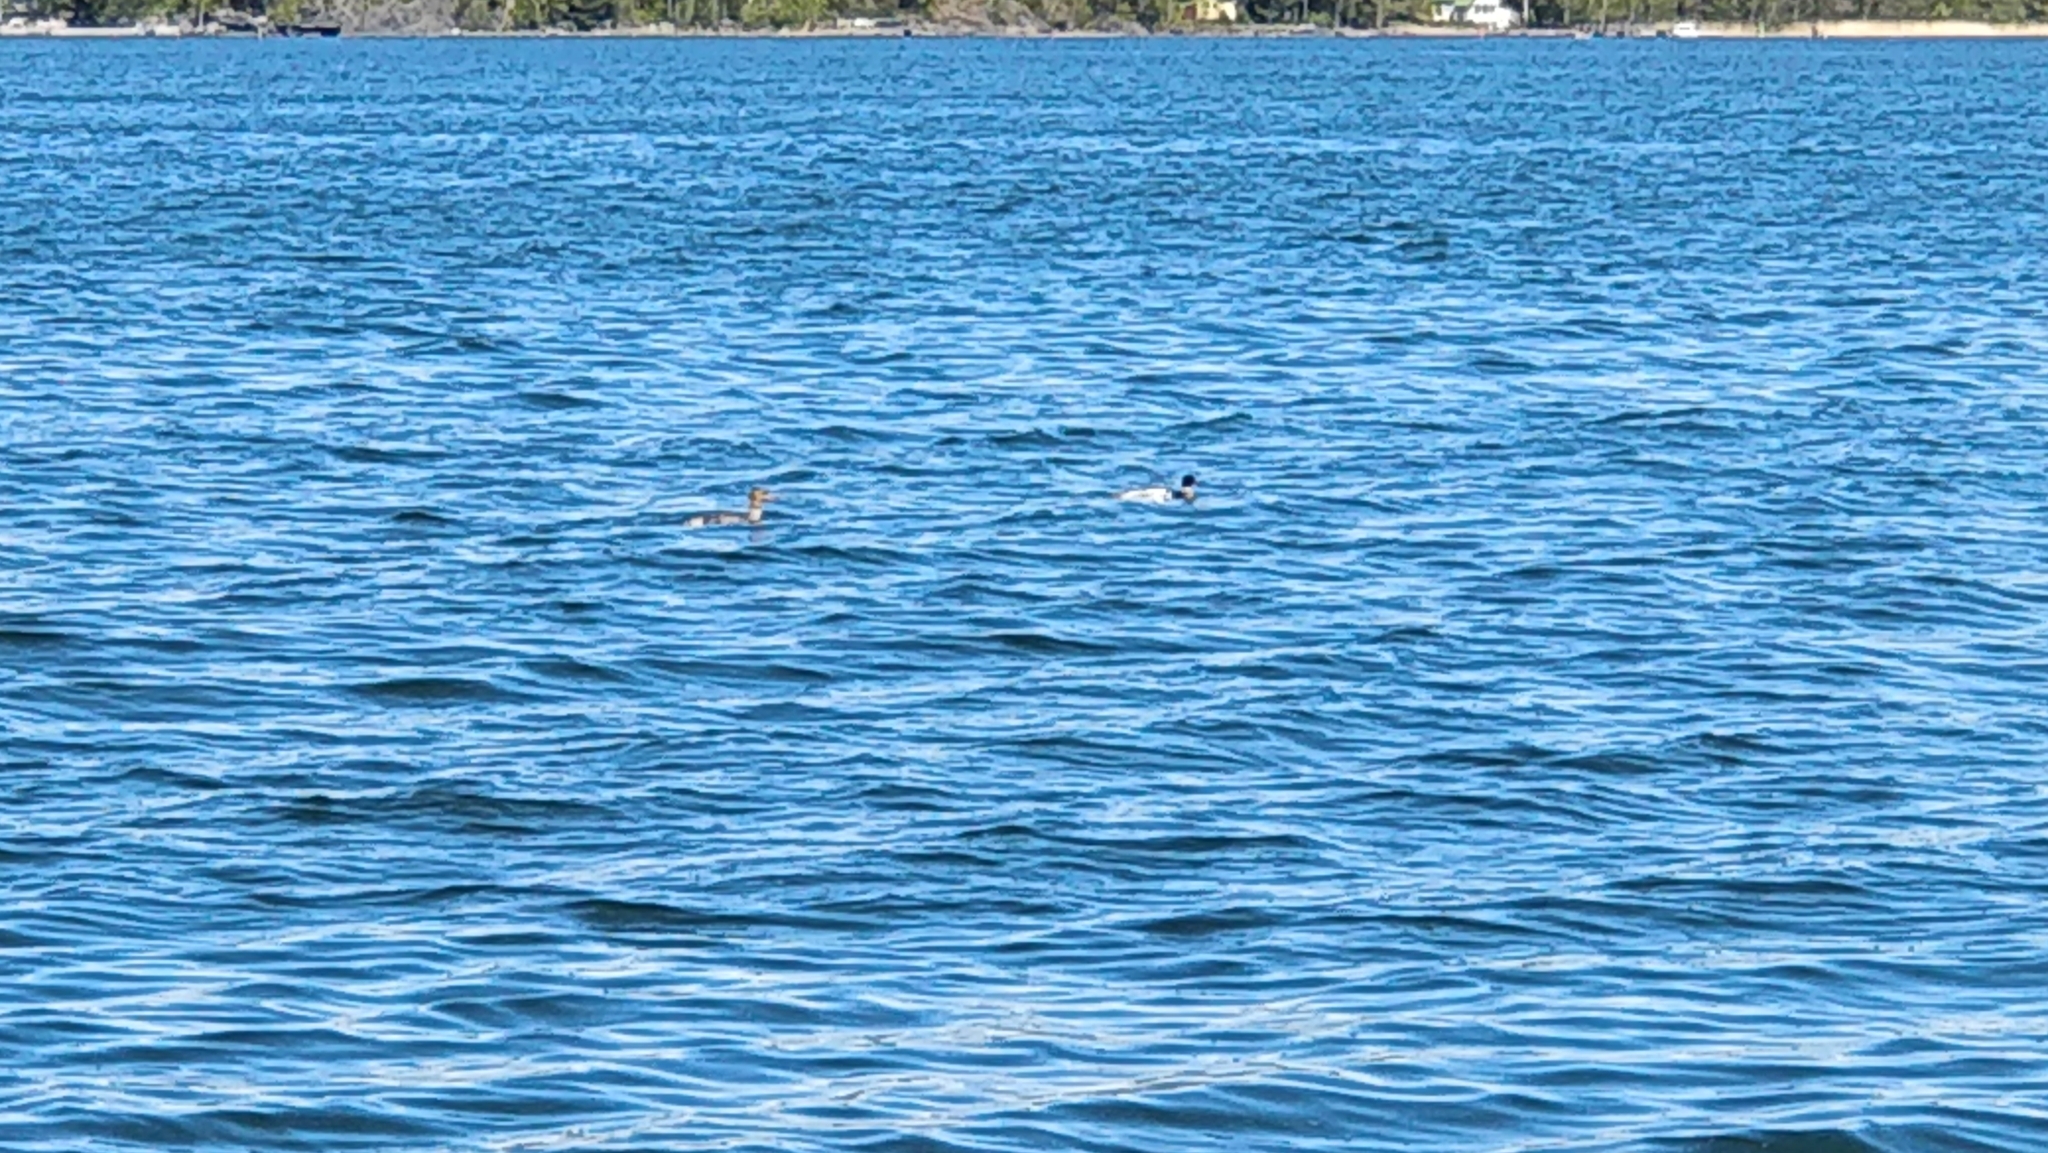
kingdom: Animalia
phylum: Chordata
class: Aves
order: Anseriformes
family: Anatidae
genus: Mergus
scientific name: Mergus serrator
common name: Red-breasted merganser
